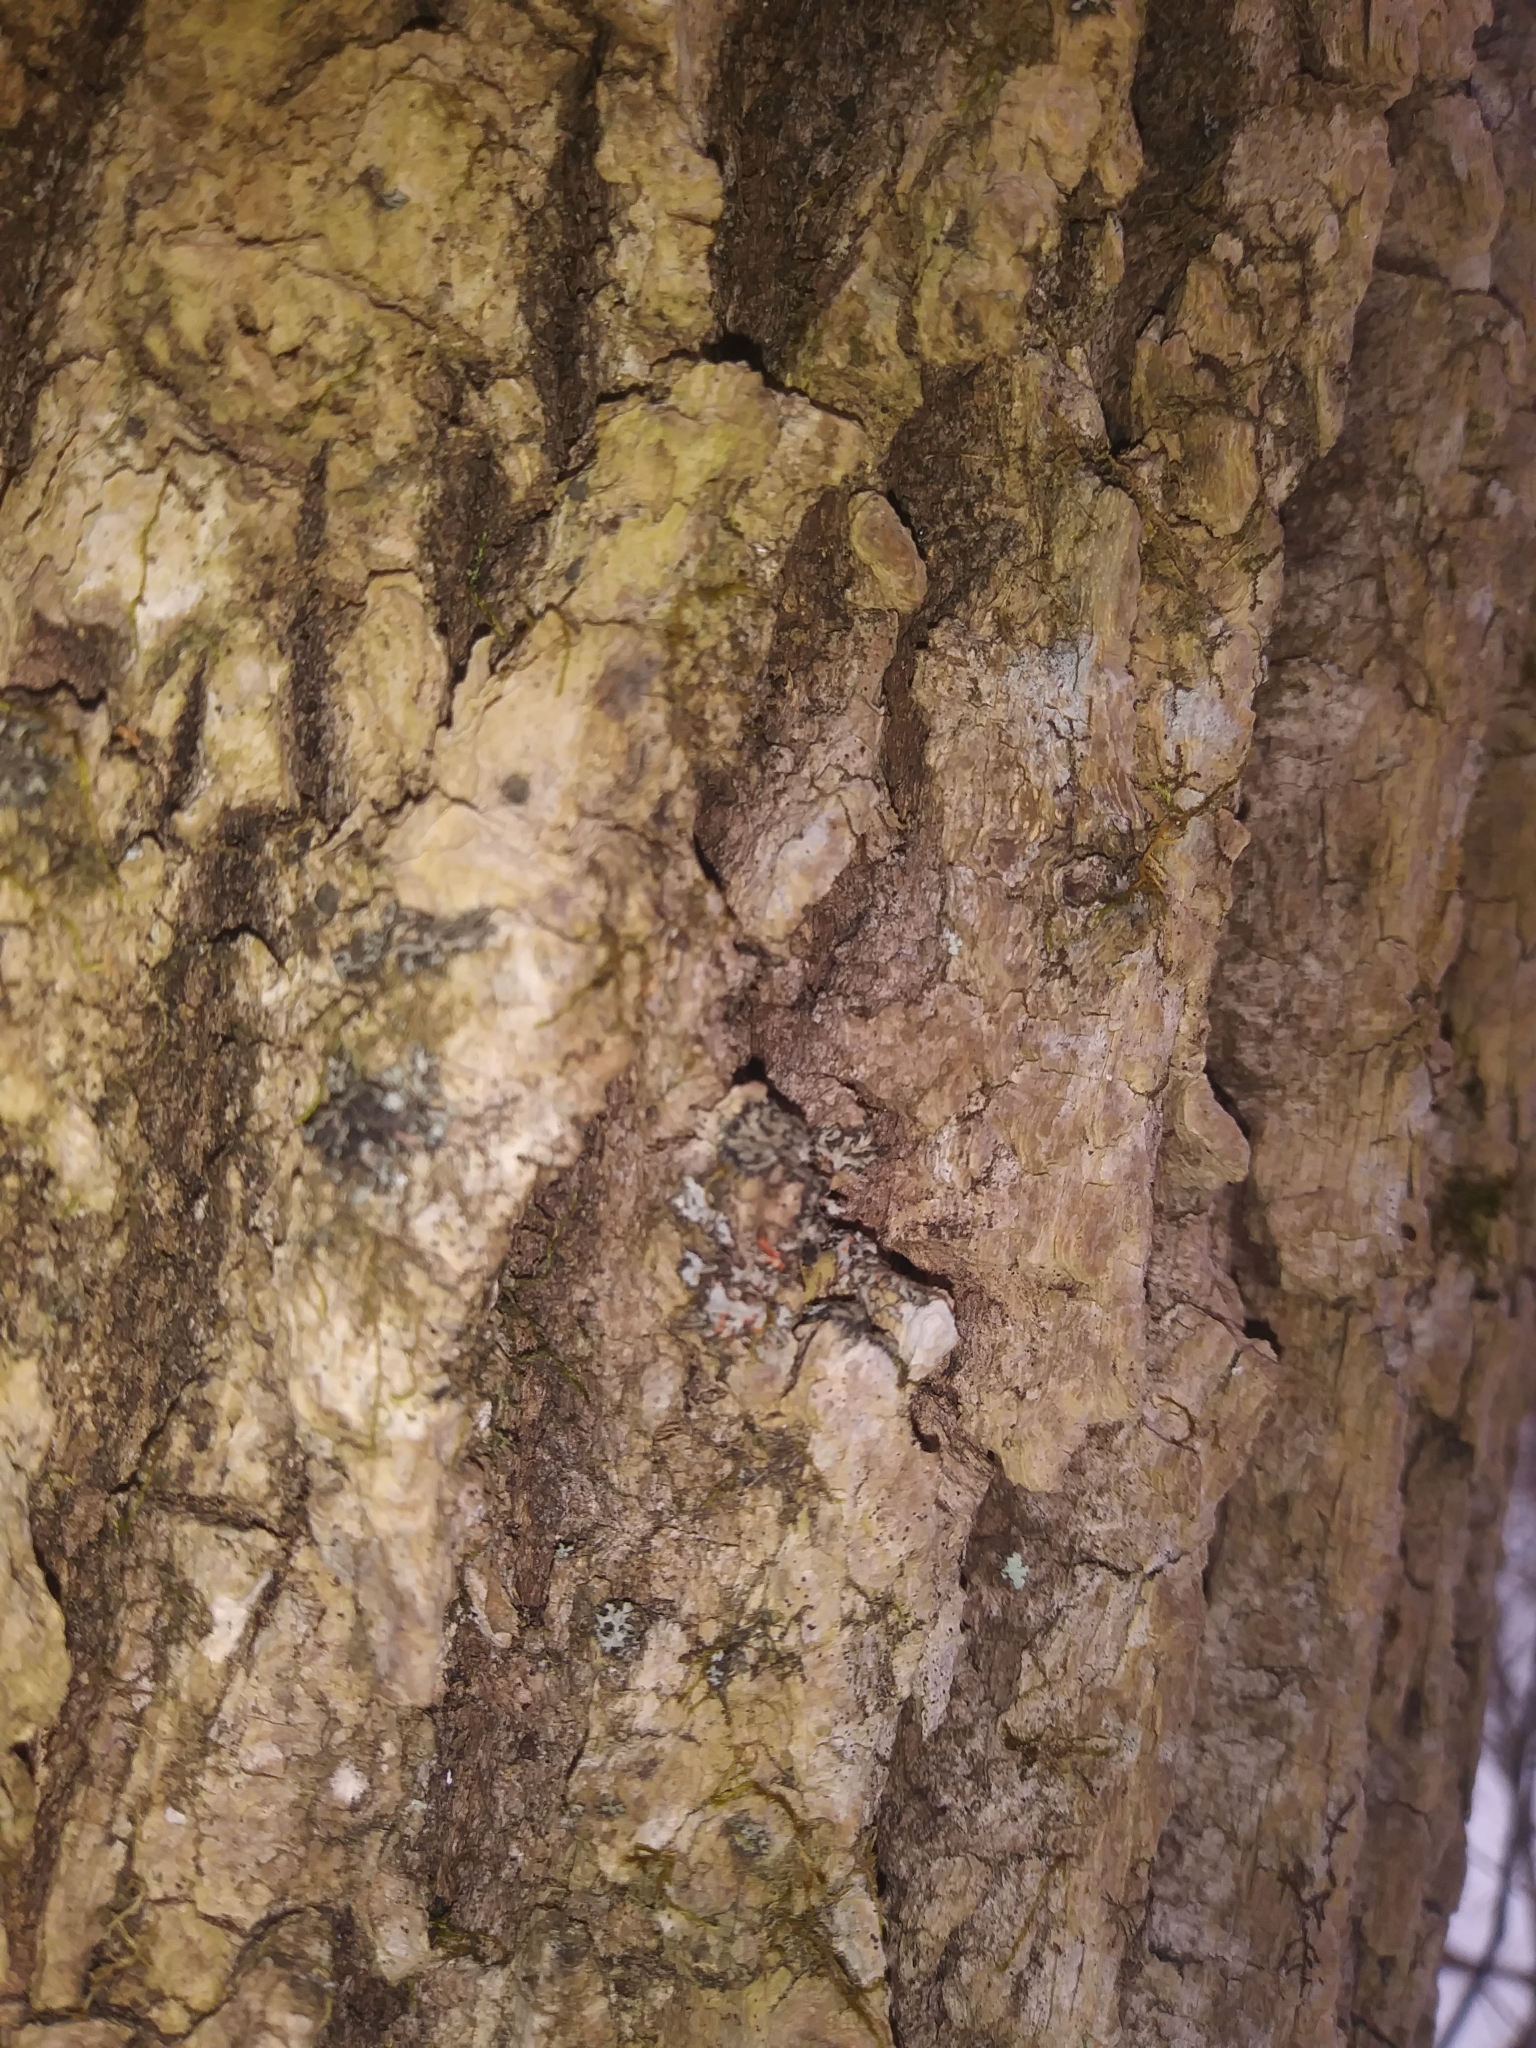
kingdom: Fungi
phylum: Ascomycota
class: Lecanoromycetes
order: Caliciales
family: Physciaceae
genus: Phaeophyscia
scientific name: Phaeophyscia rubropulchra
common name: Orange-cored shadow lichen
